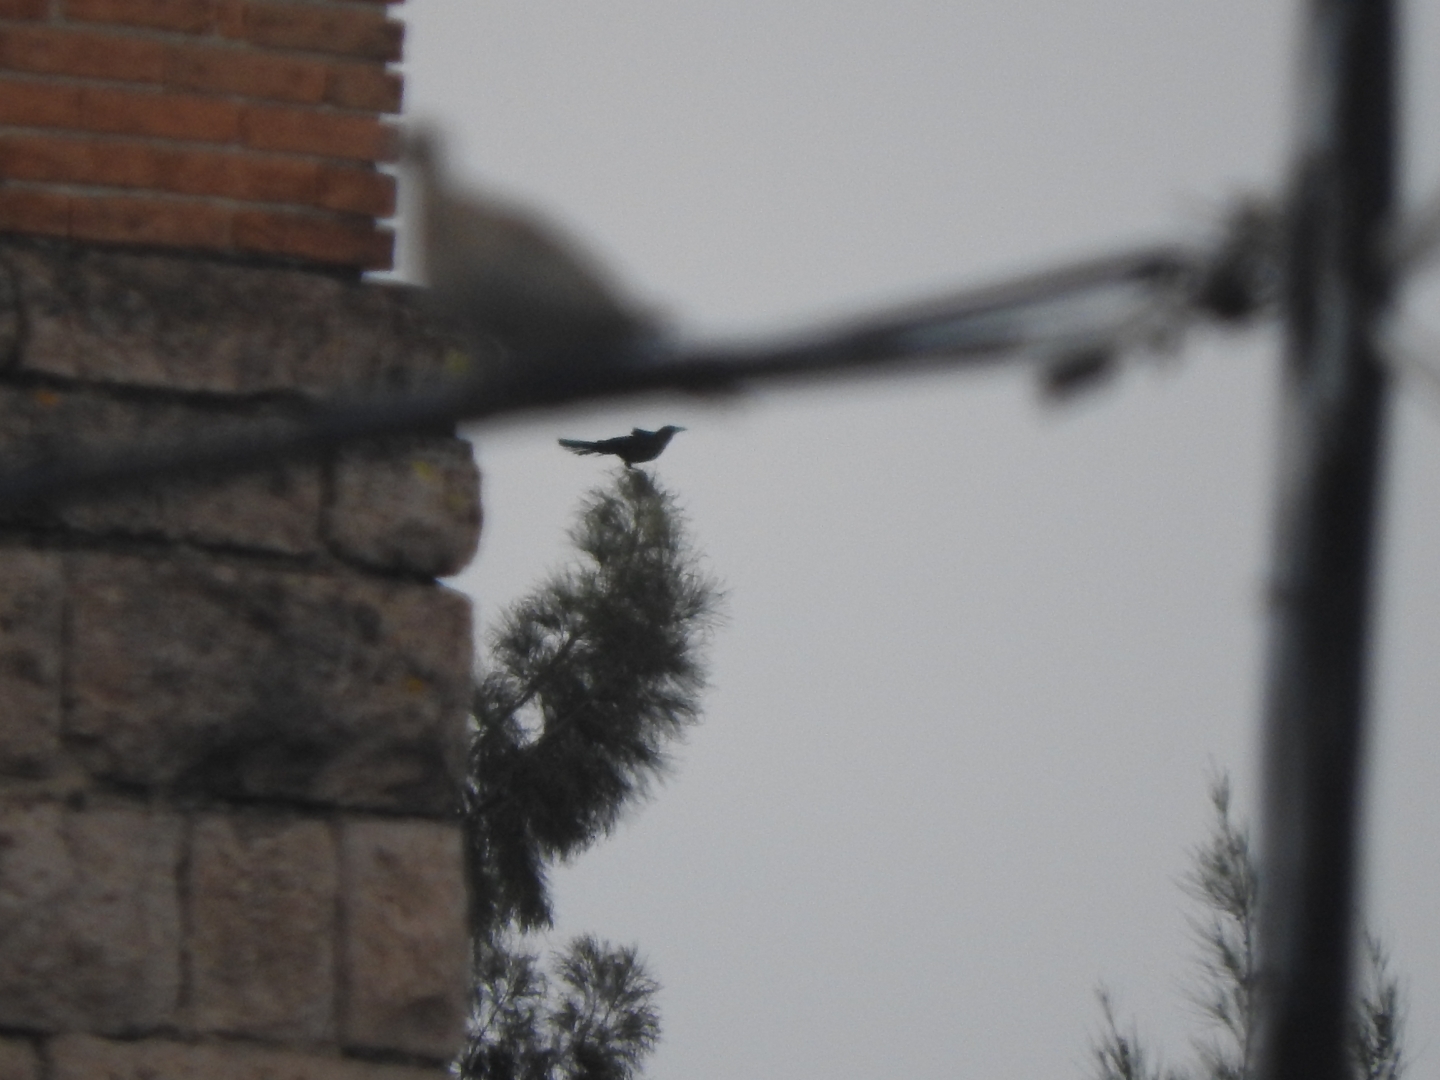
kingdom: Animalia
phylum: Chordata
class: Aves
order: Passeriformes
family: Icteridae
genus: Quiscalus
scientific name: Quiscalus mexicanus
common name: Great-tailed grackle
